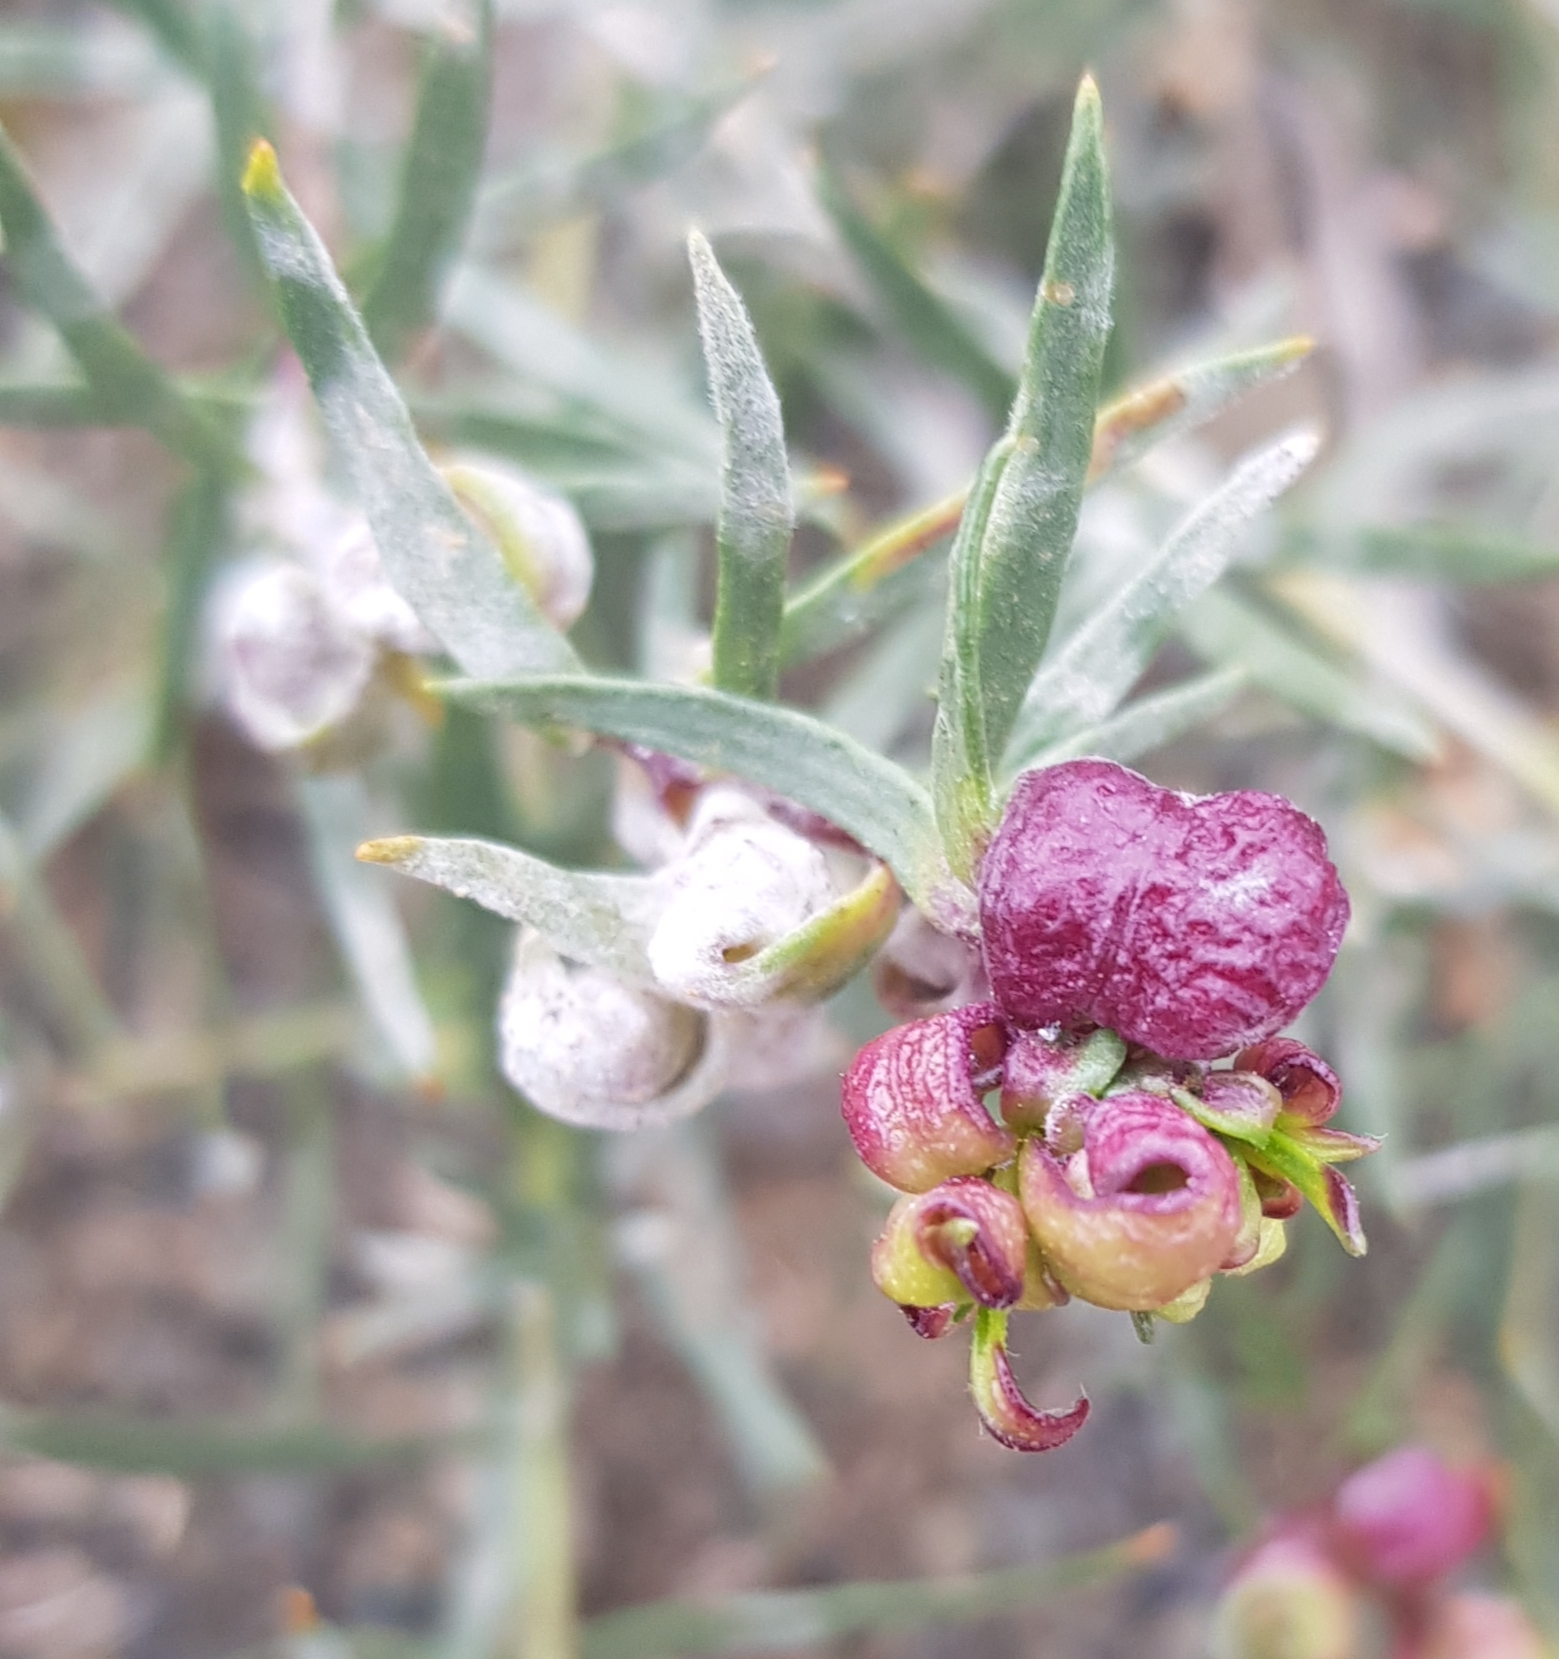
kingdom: Plantae
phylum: Tracheophyta
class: Magnoliopsida
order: Caryophyllales
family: Polygonaceae
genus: Atraphaxis
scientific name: Atraphaxis pungens
